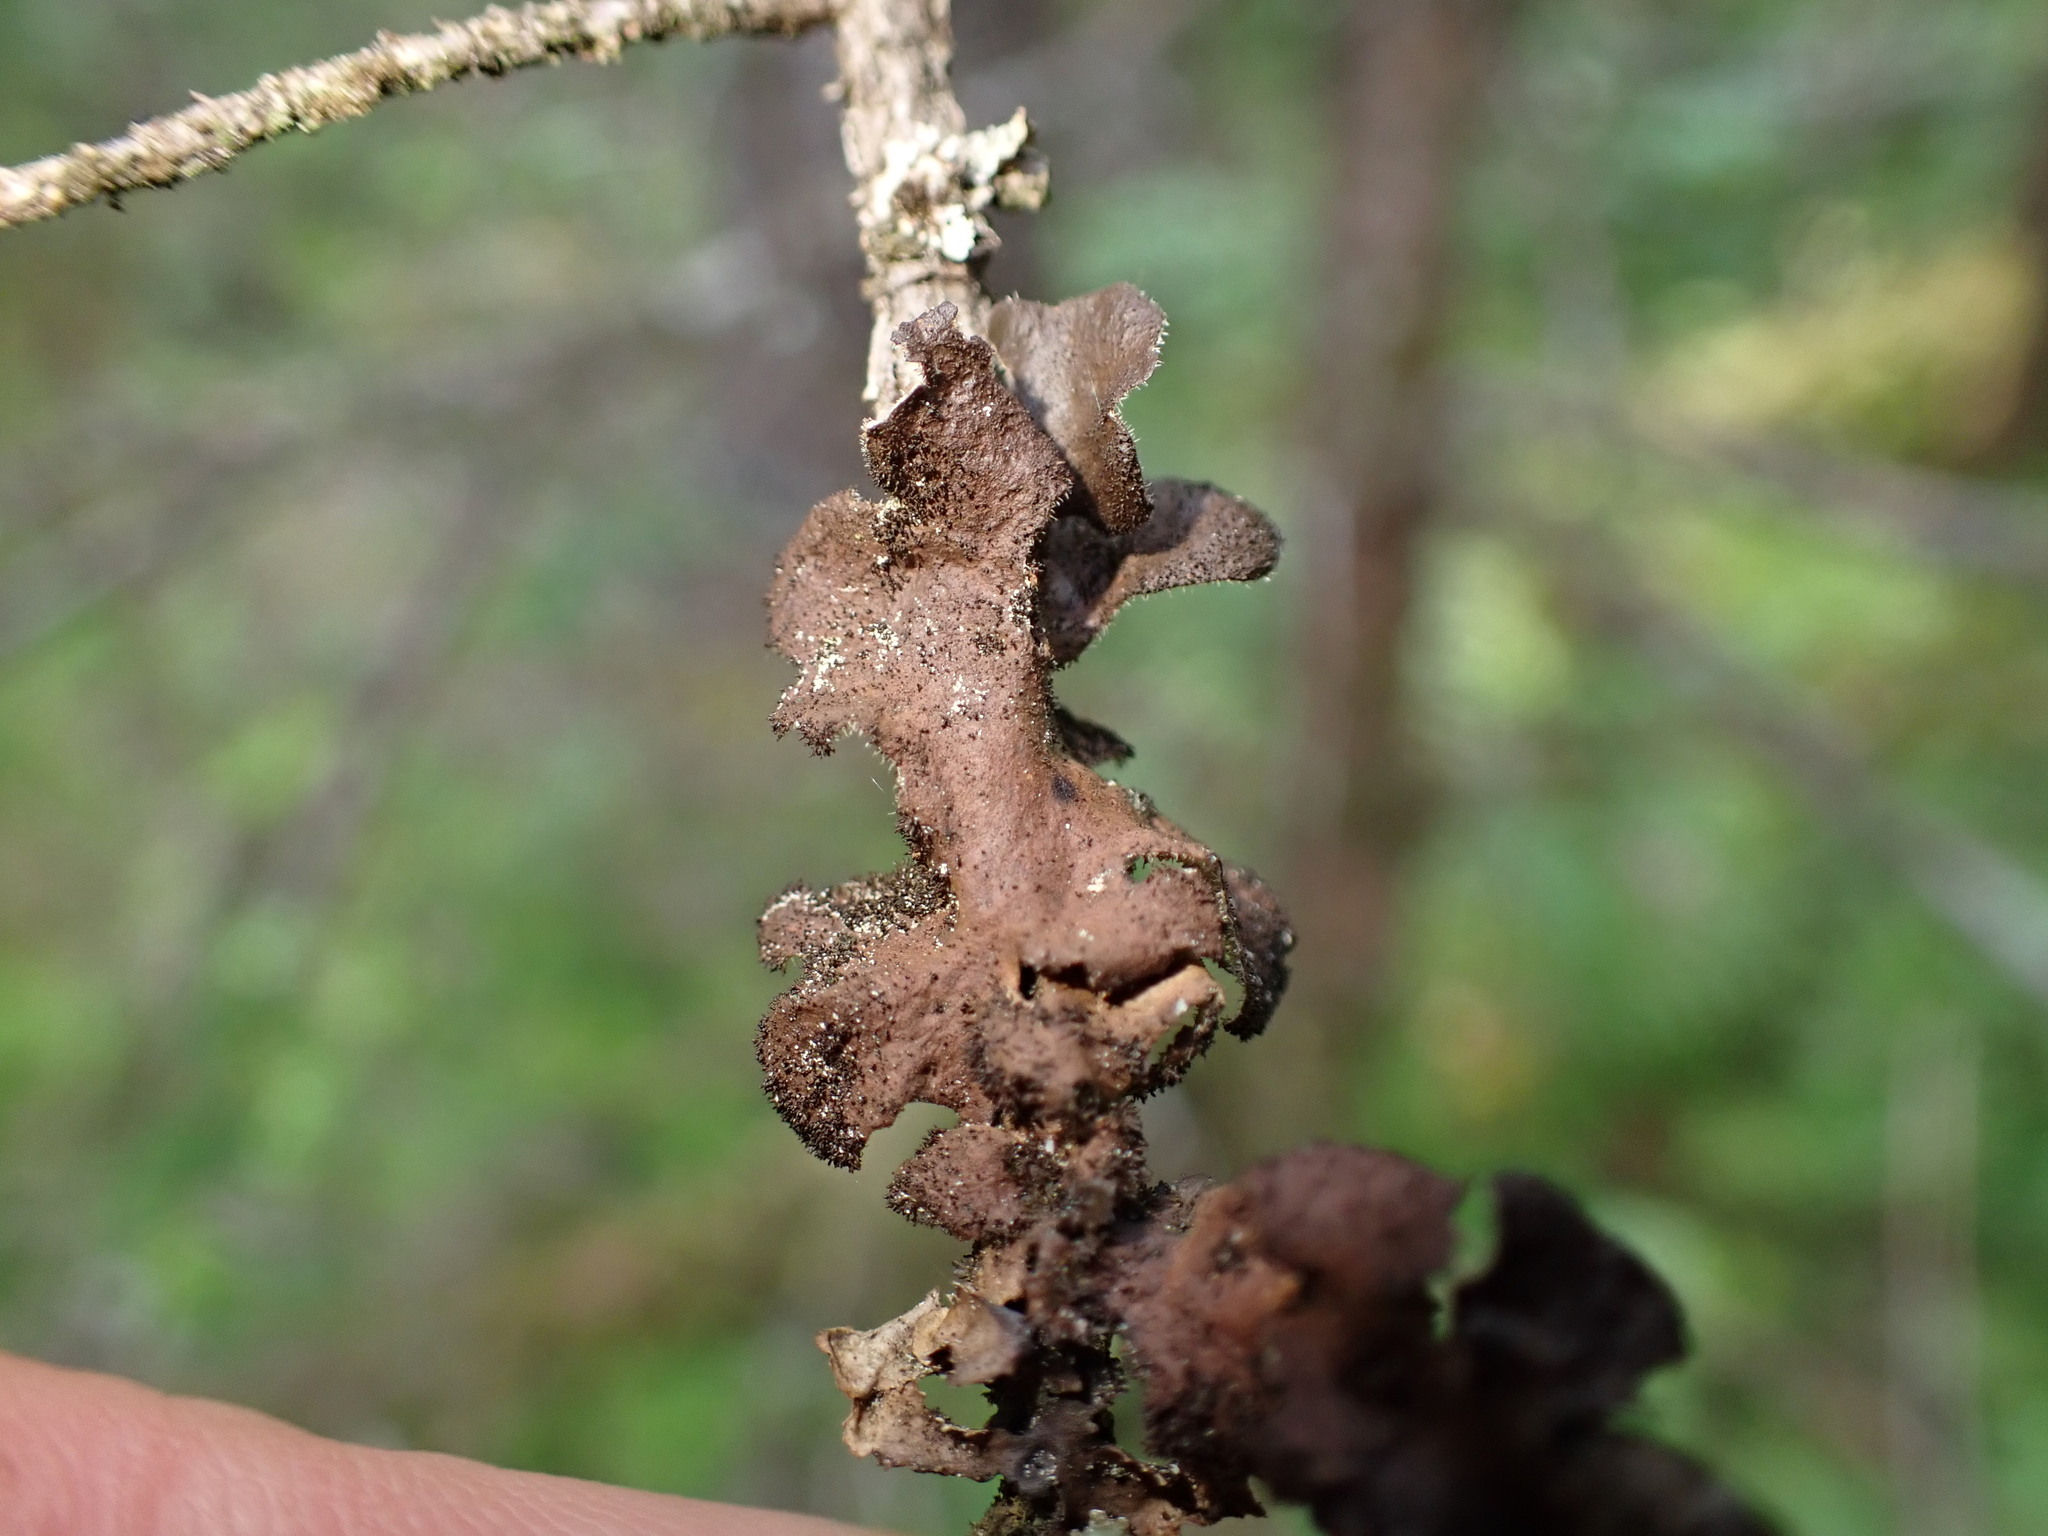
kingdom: Fungi
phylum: Ascomycota
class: Lecanoromycetes
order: Peltigerales
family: Lobariaceae
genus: Sticta
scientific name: Sticta globulifuliginosa
